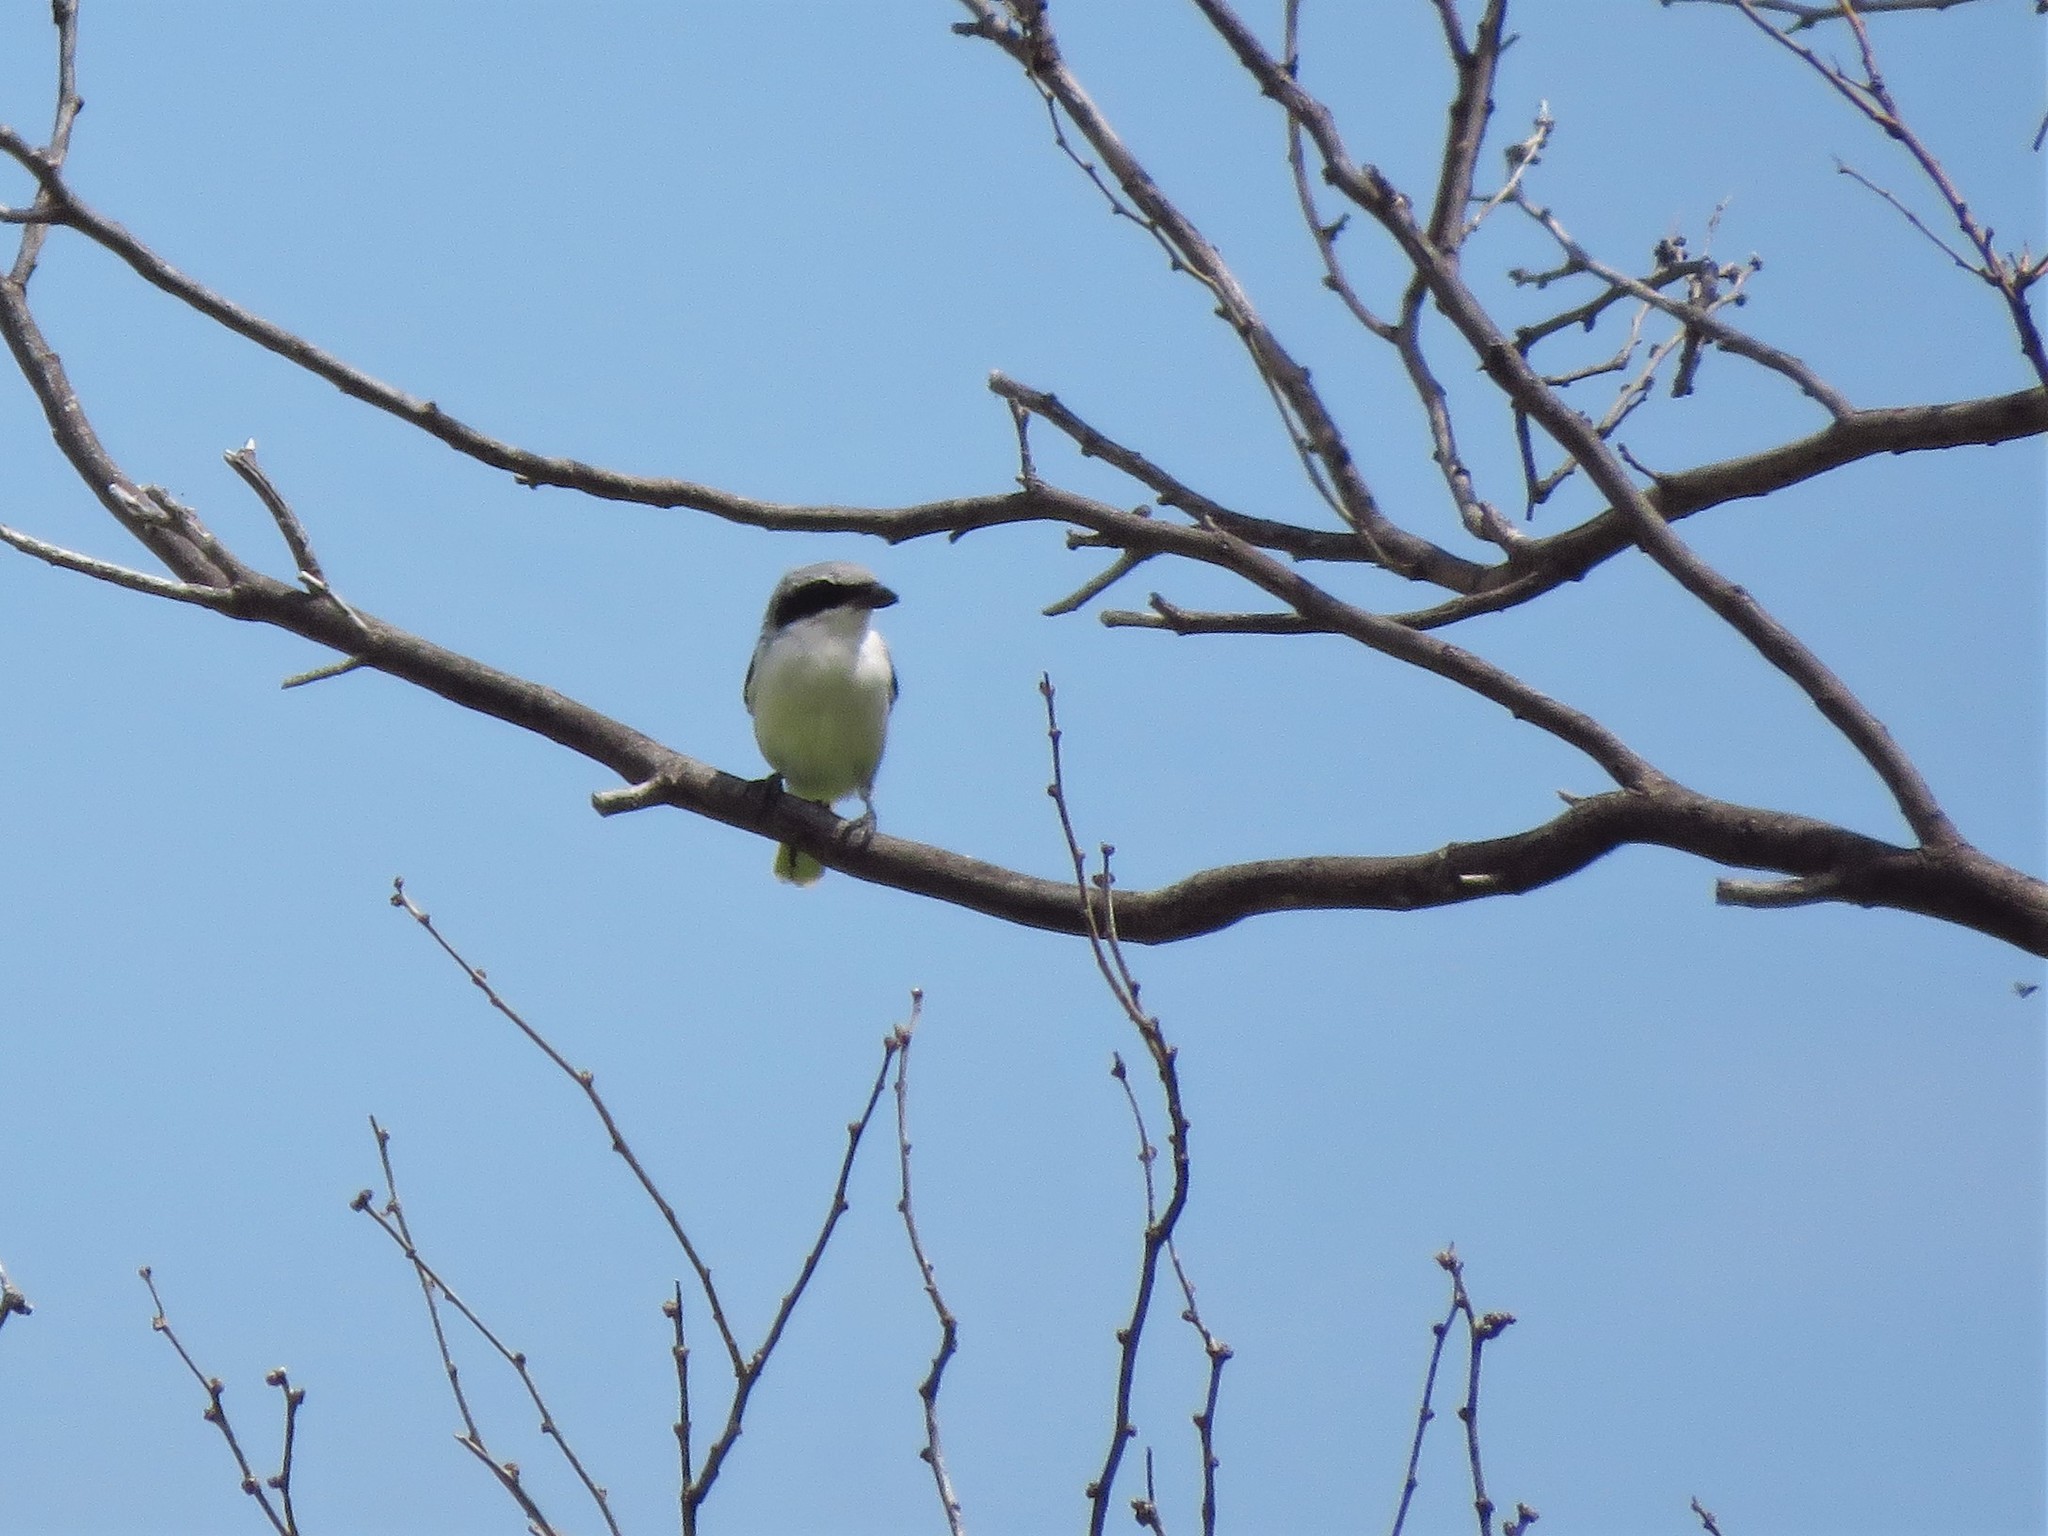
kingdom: Animalia
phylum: Chordata
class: Aves
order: Passeriformes
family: Laniidae
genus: Lanius
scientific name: Lanius ludovicianus
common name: Loggerhead shrike
